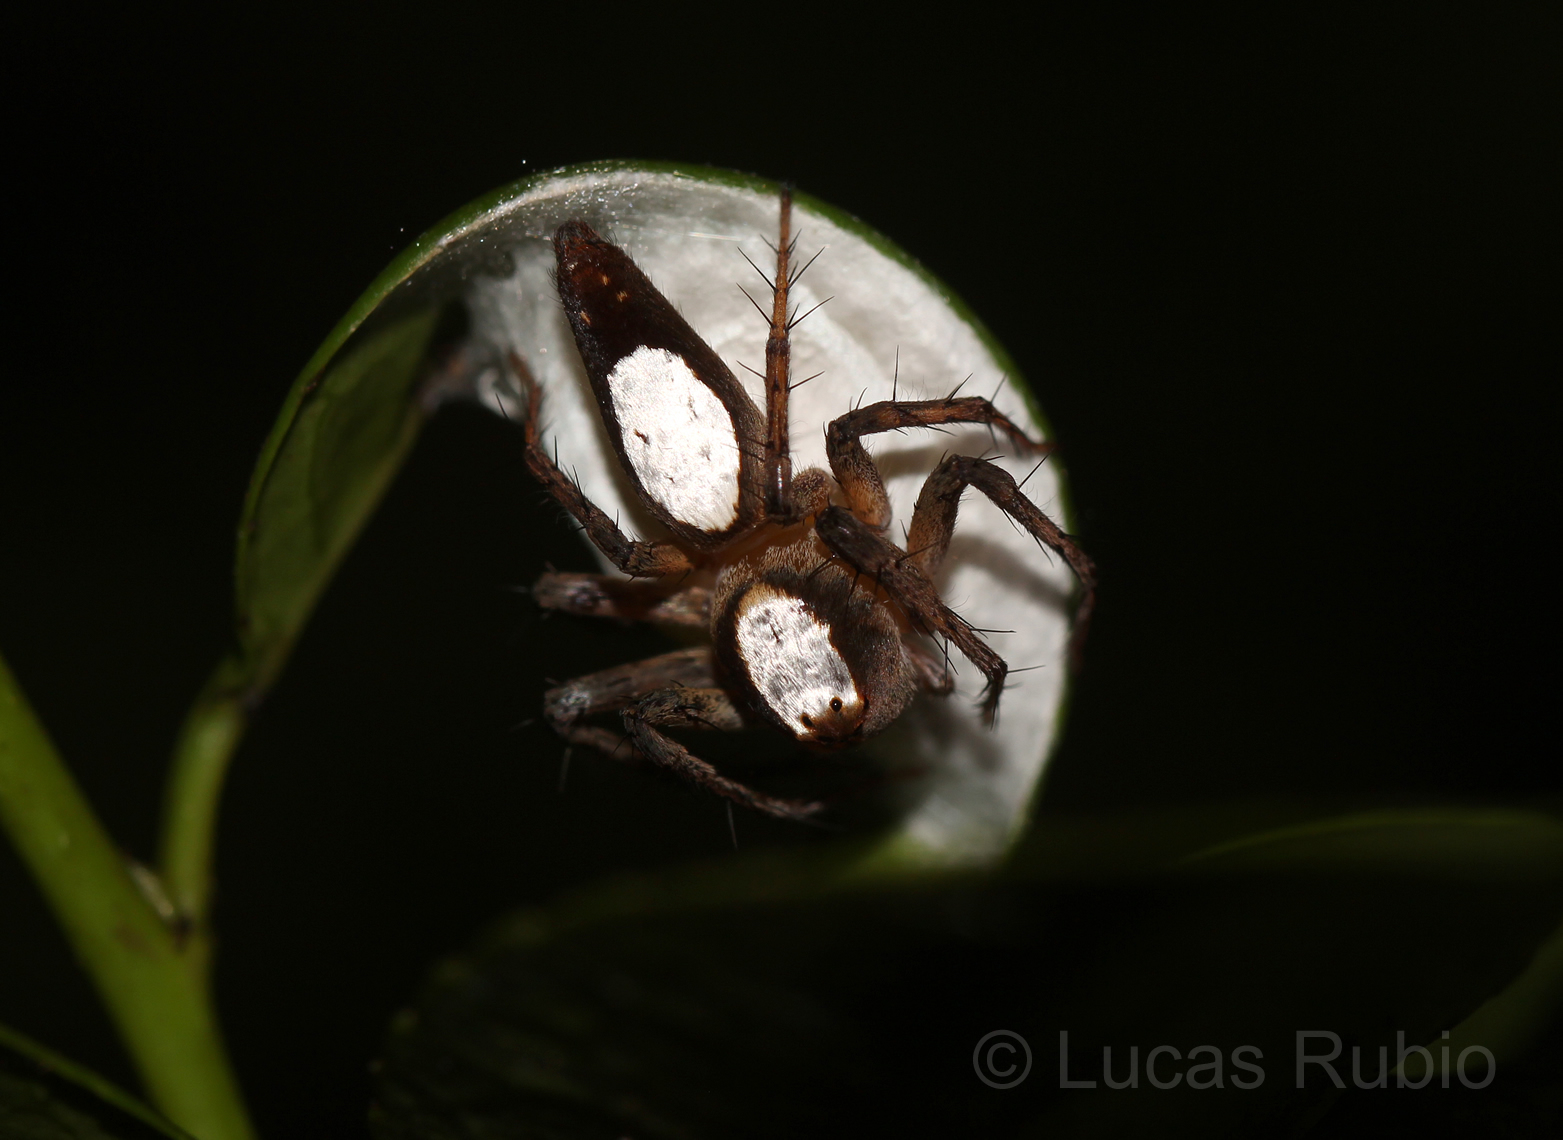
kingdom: Animalia
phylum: Arthropoda
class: Arachnida
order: Araneae
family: Oxyopidae
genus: Oxyopes
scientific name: Oxyopes niveosigillatus
